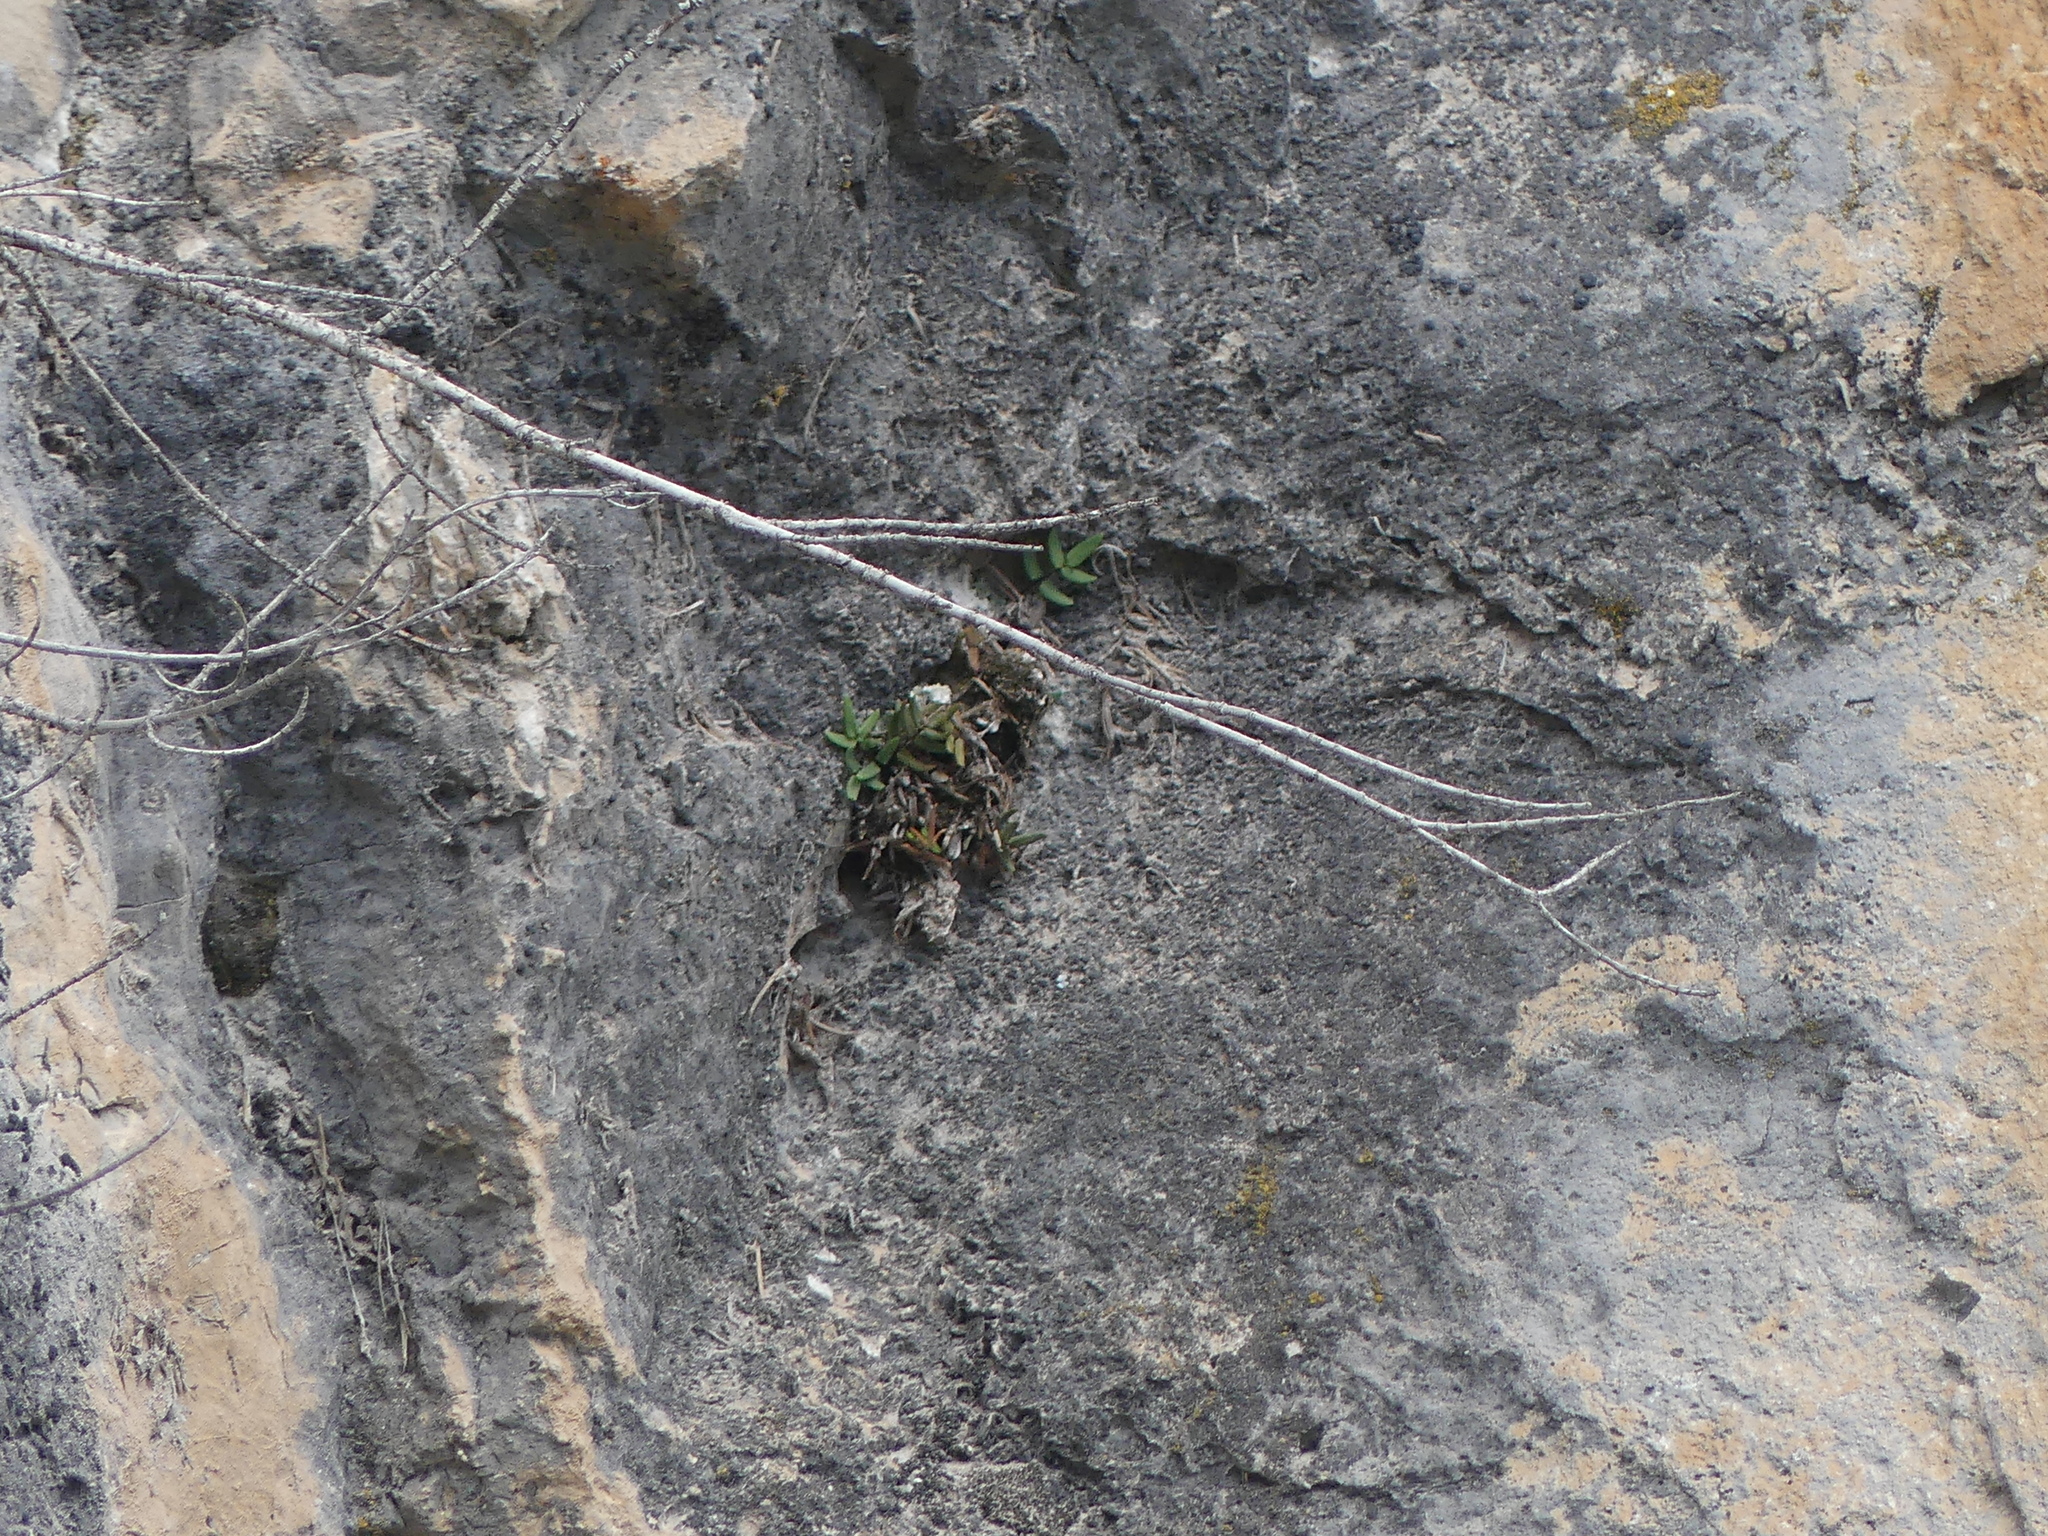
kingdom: Plantae
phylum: Tracheophyta
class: Polypodiopsida
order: Polypodiales
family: Pteridaceae
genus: Pellaea
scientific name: Pellaea glabella
